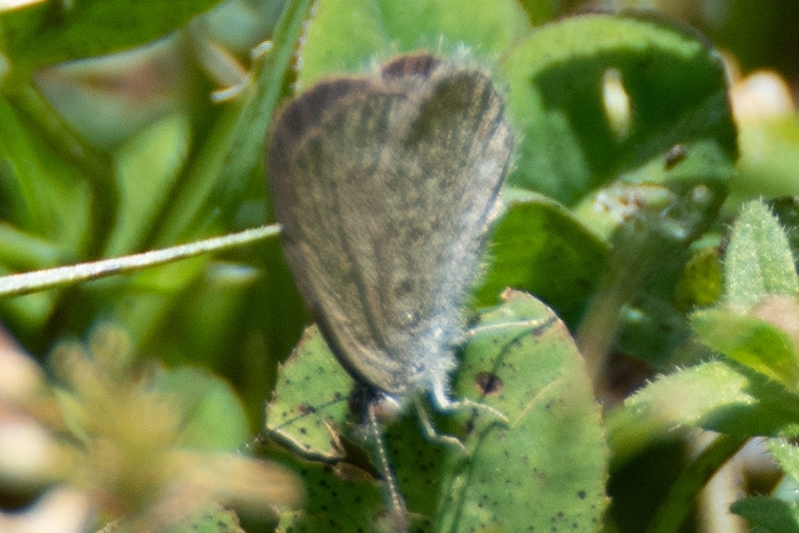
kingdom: Animalia
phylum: Arthropoda
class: Insecta
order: Lepidoptera
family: Lycaenidae
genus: Zizina
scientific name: Zizina labradus
